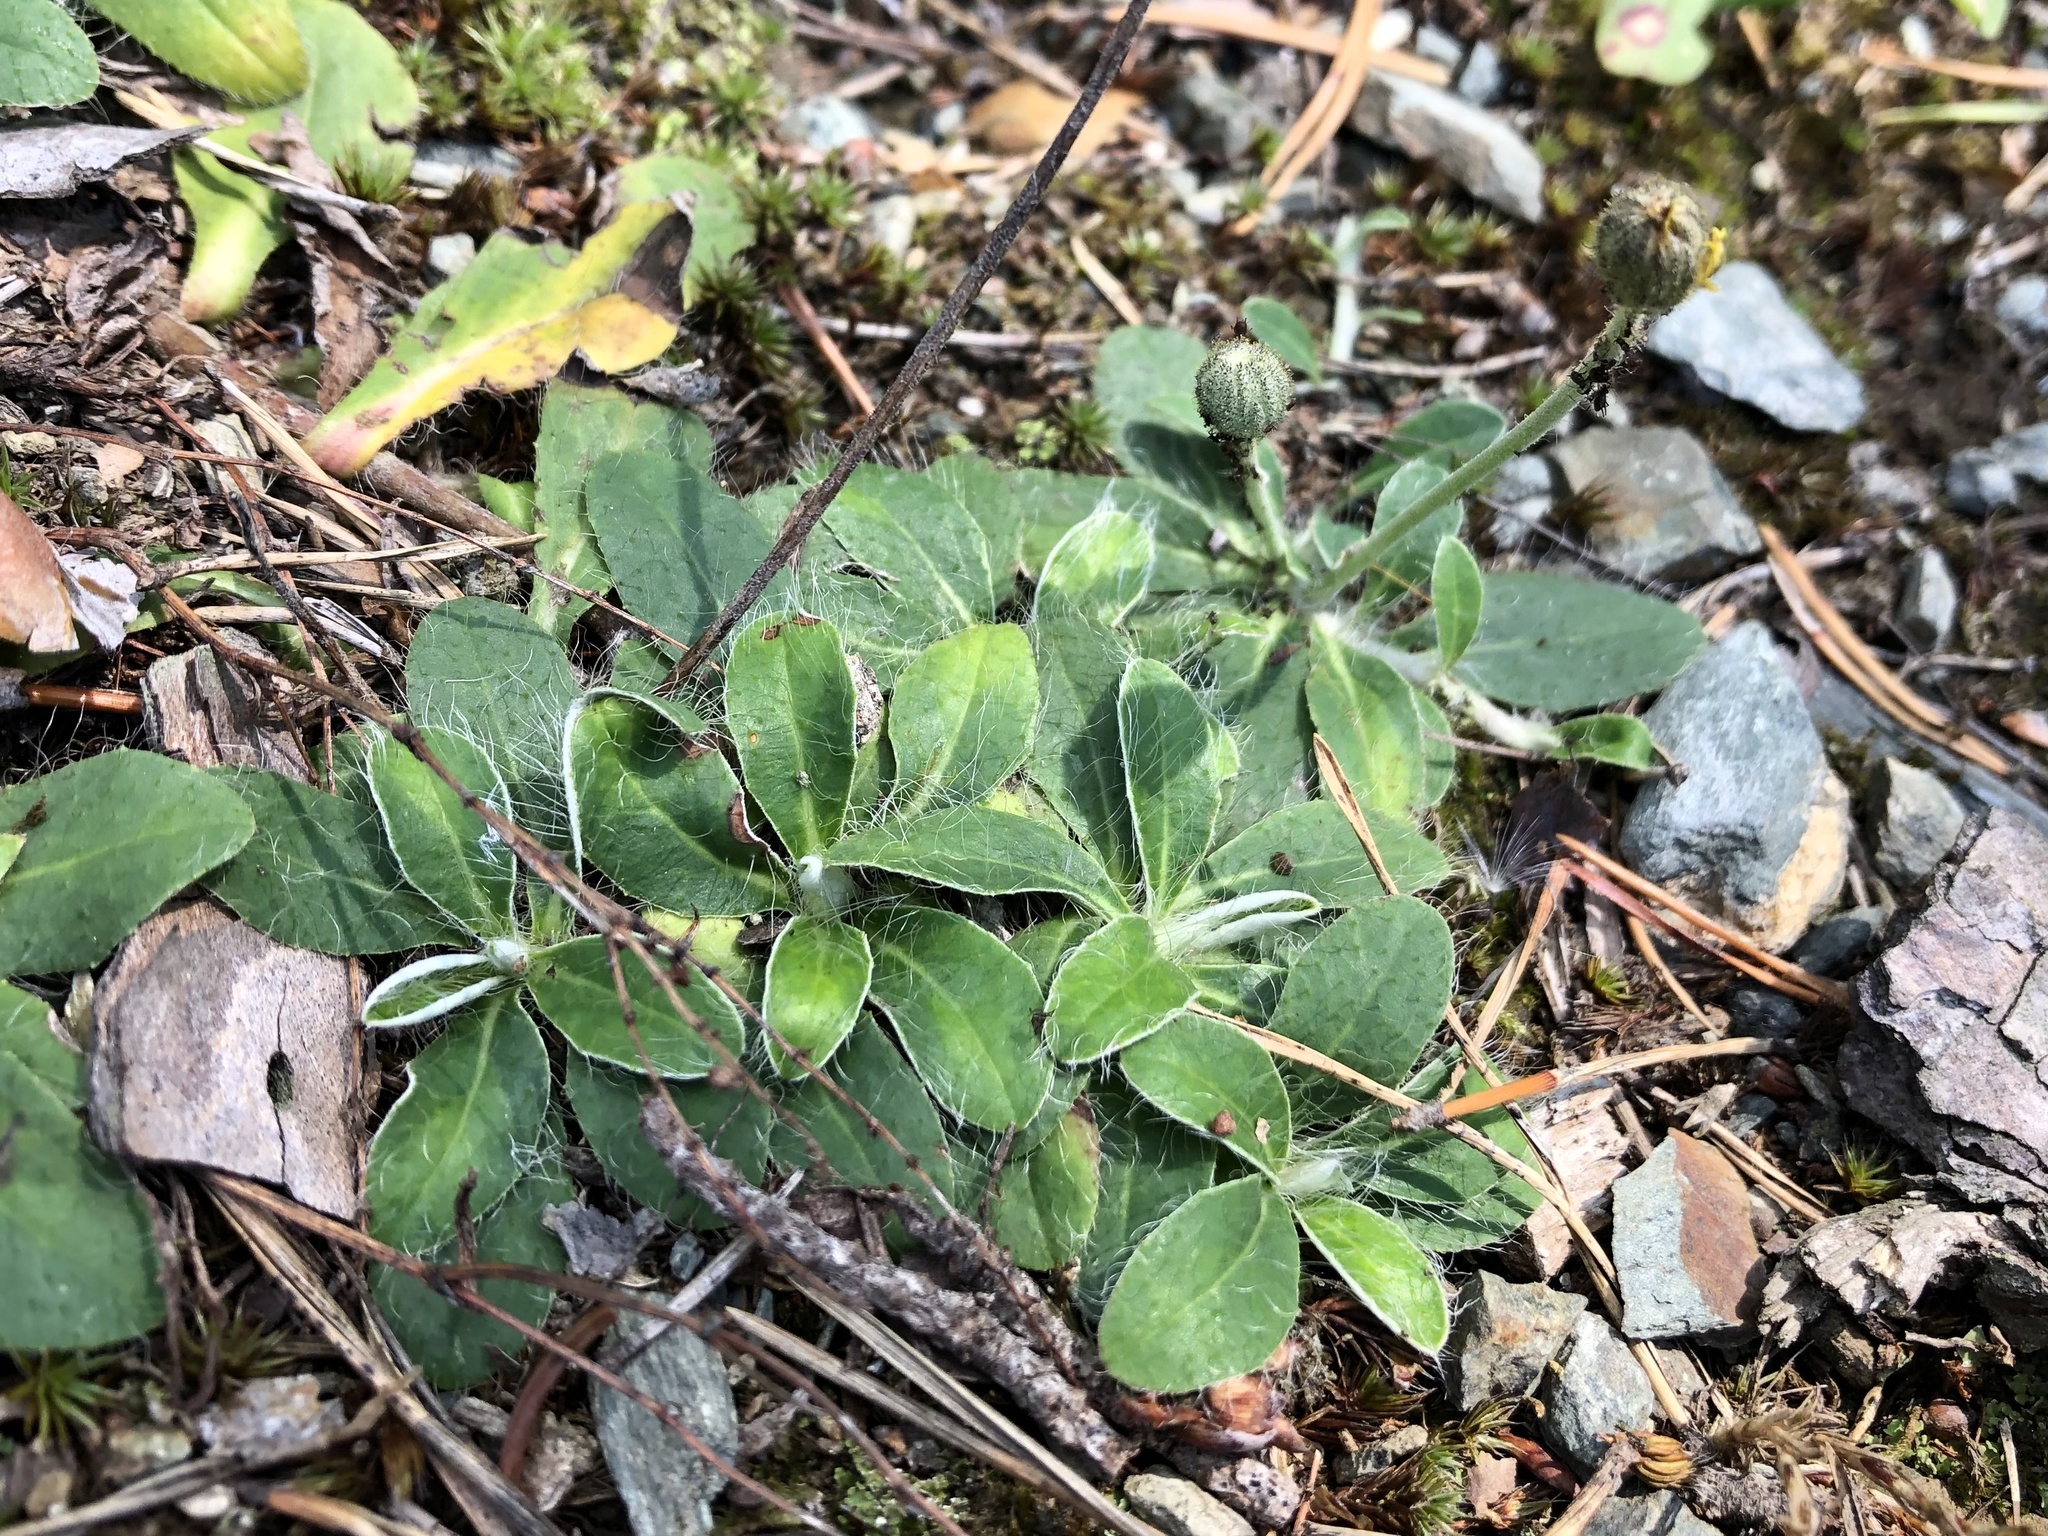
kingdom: Plantae
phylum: Tracheophyta
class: Magnoliopsida
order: Asterales
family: Asteraceae
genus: Pilosella
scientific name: Pilosella officinarum
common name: Mouse-ear hawkweed
